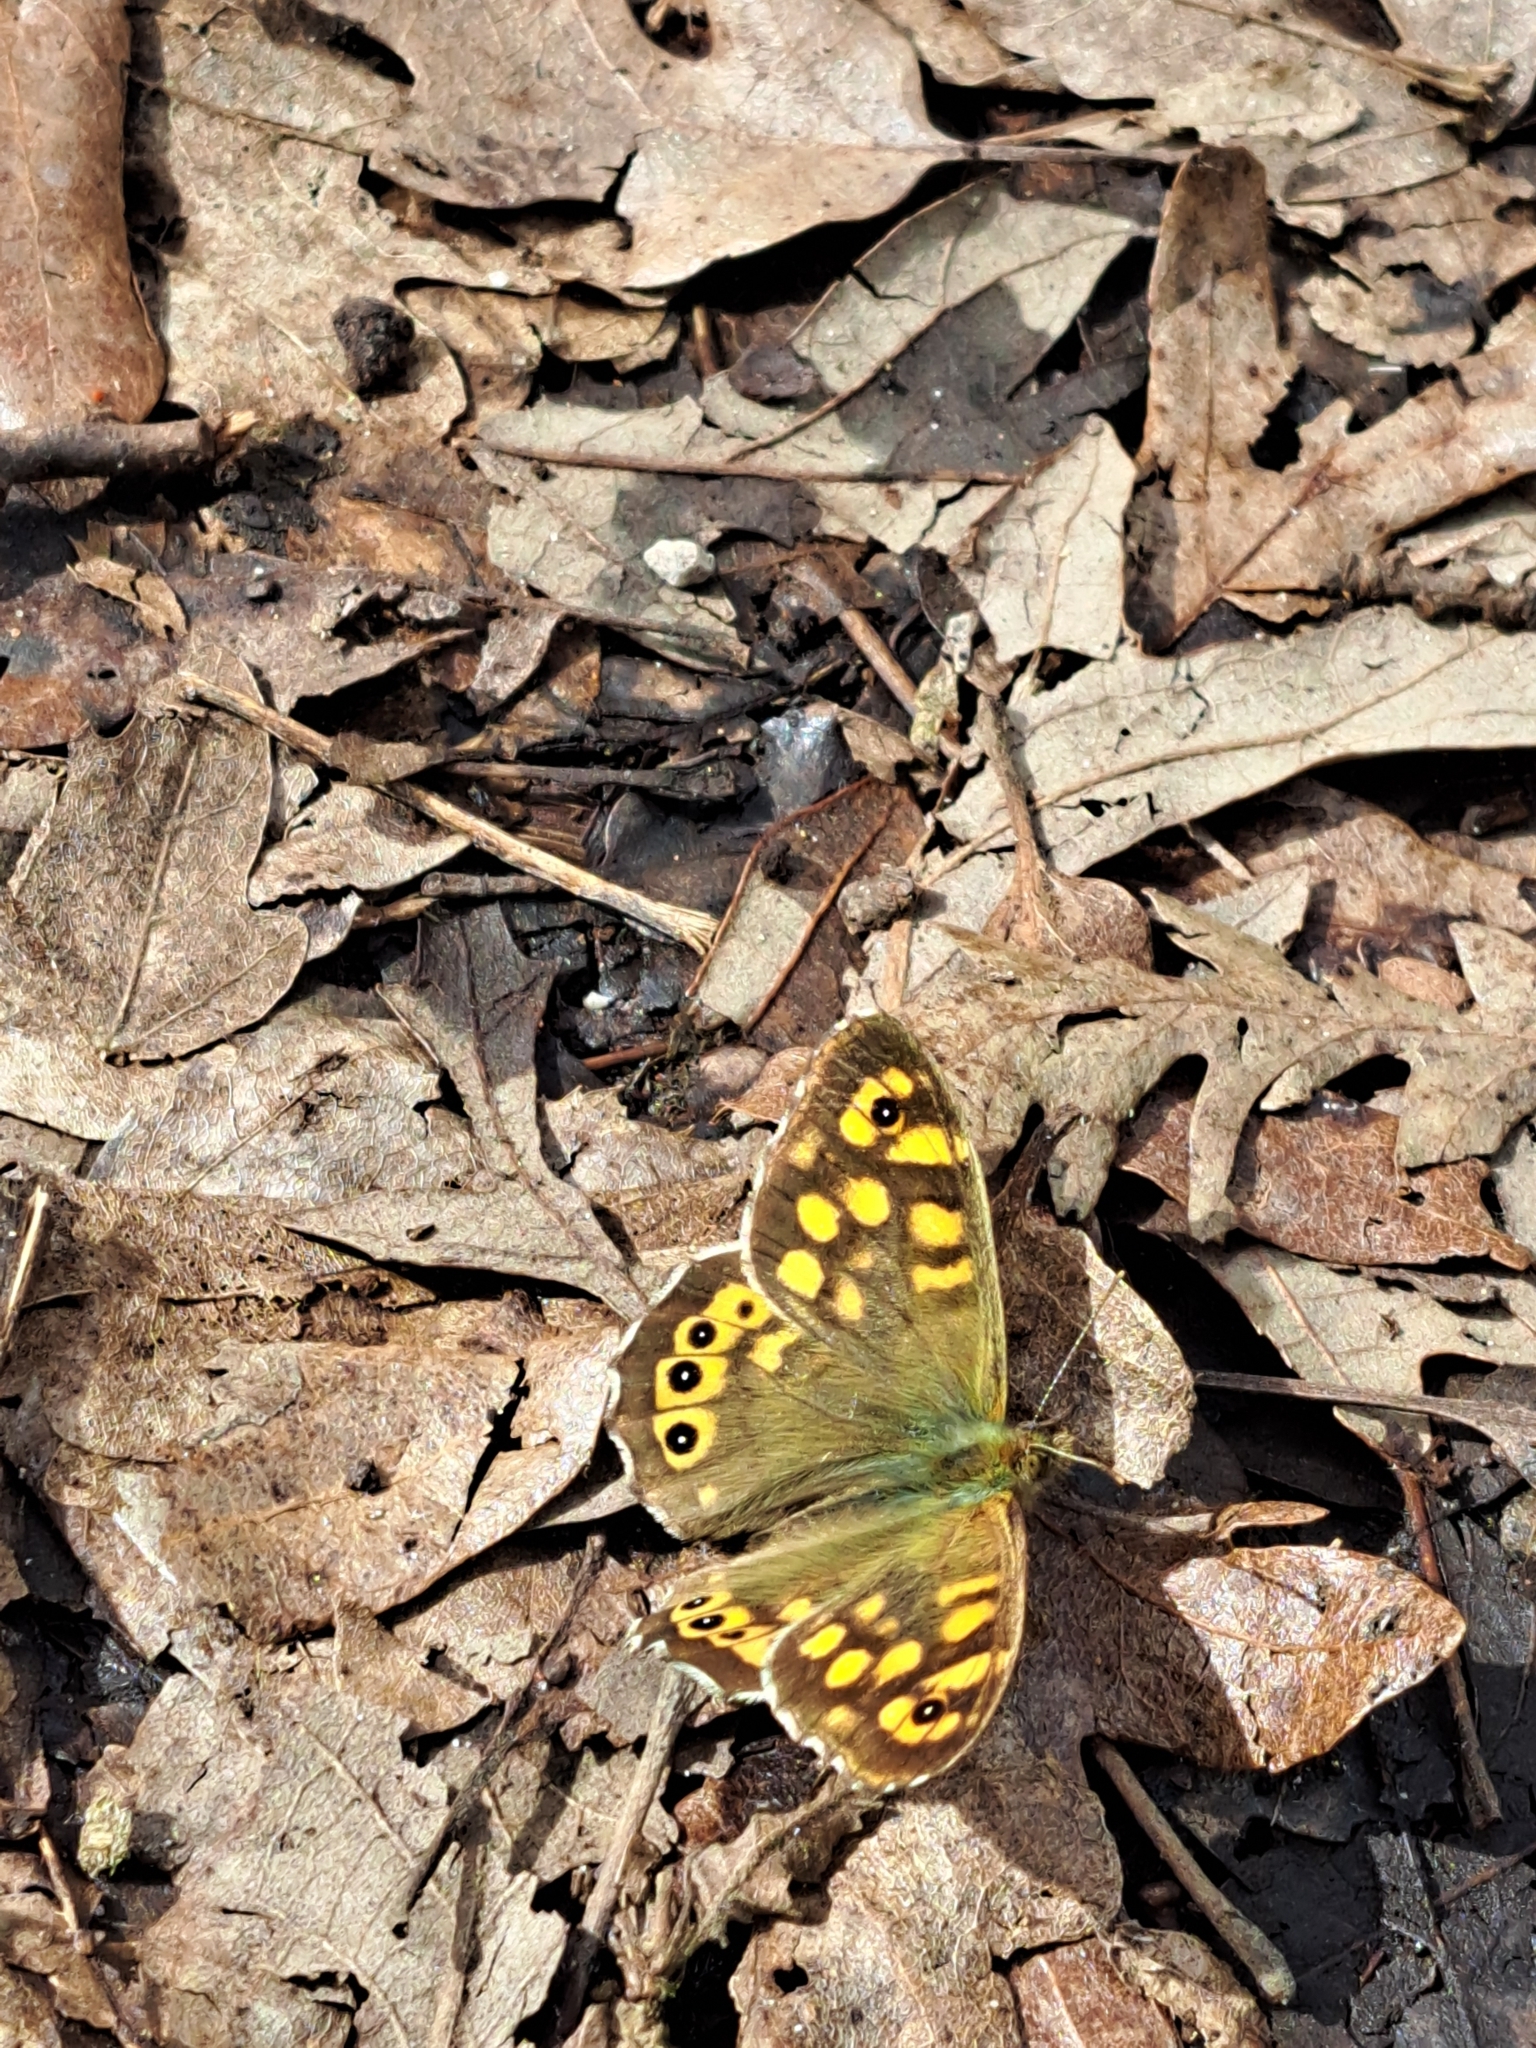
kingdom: Animalia
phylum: Arthropoda
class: Insecta
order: Lepidoptera
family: Nymphalidae
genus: Pararge
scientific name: Pararge aegeria
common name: Speckled wood
